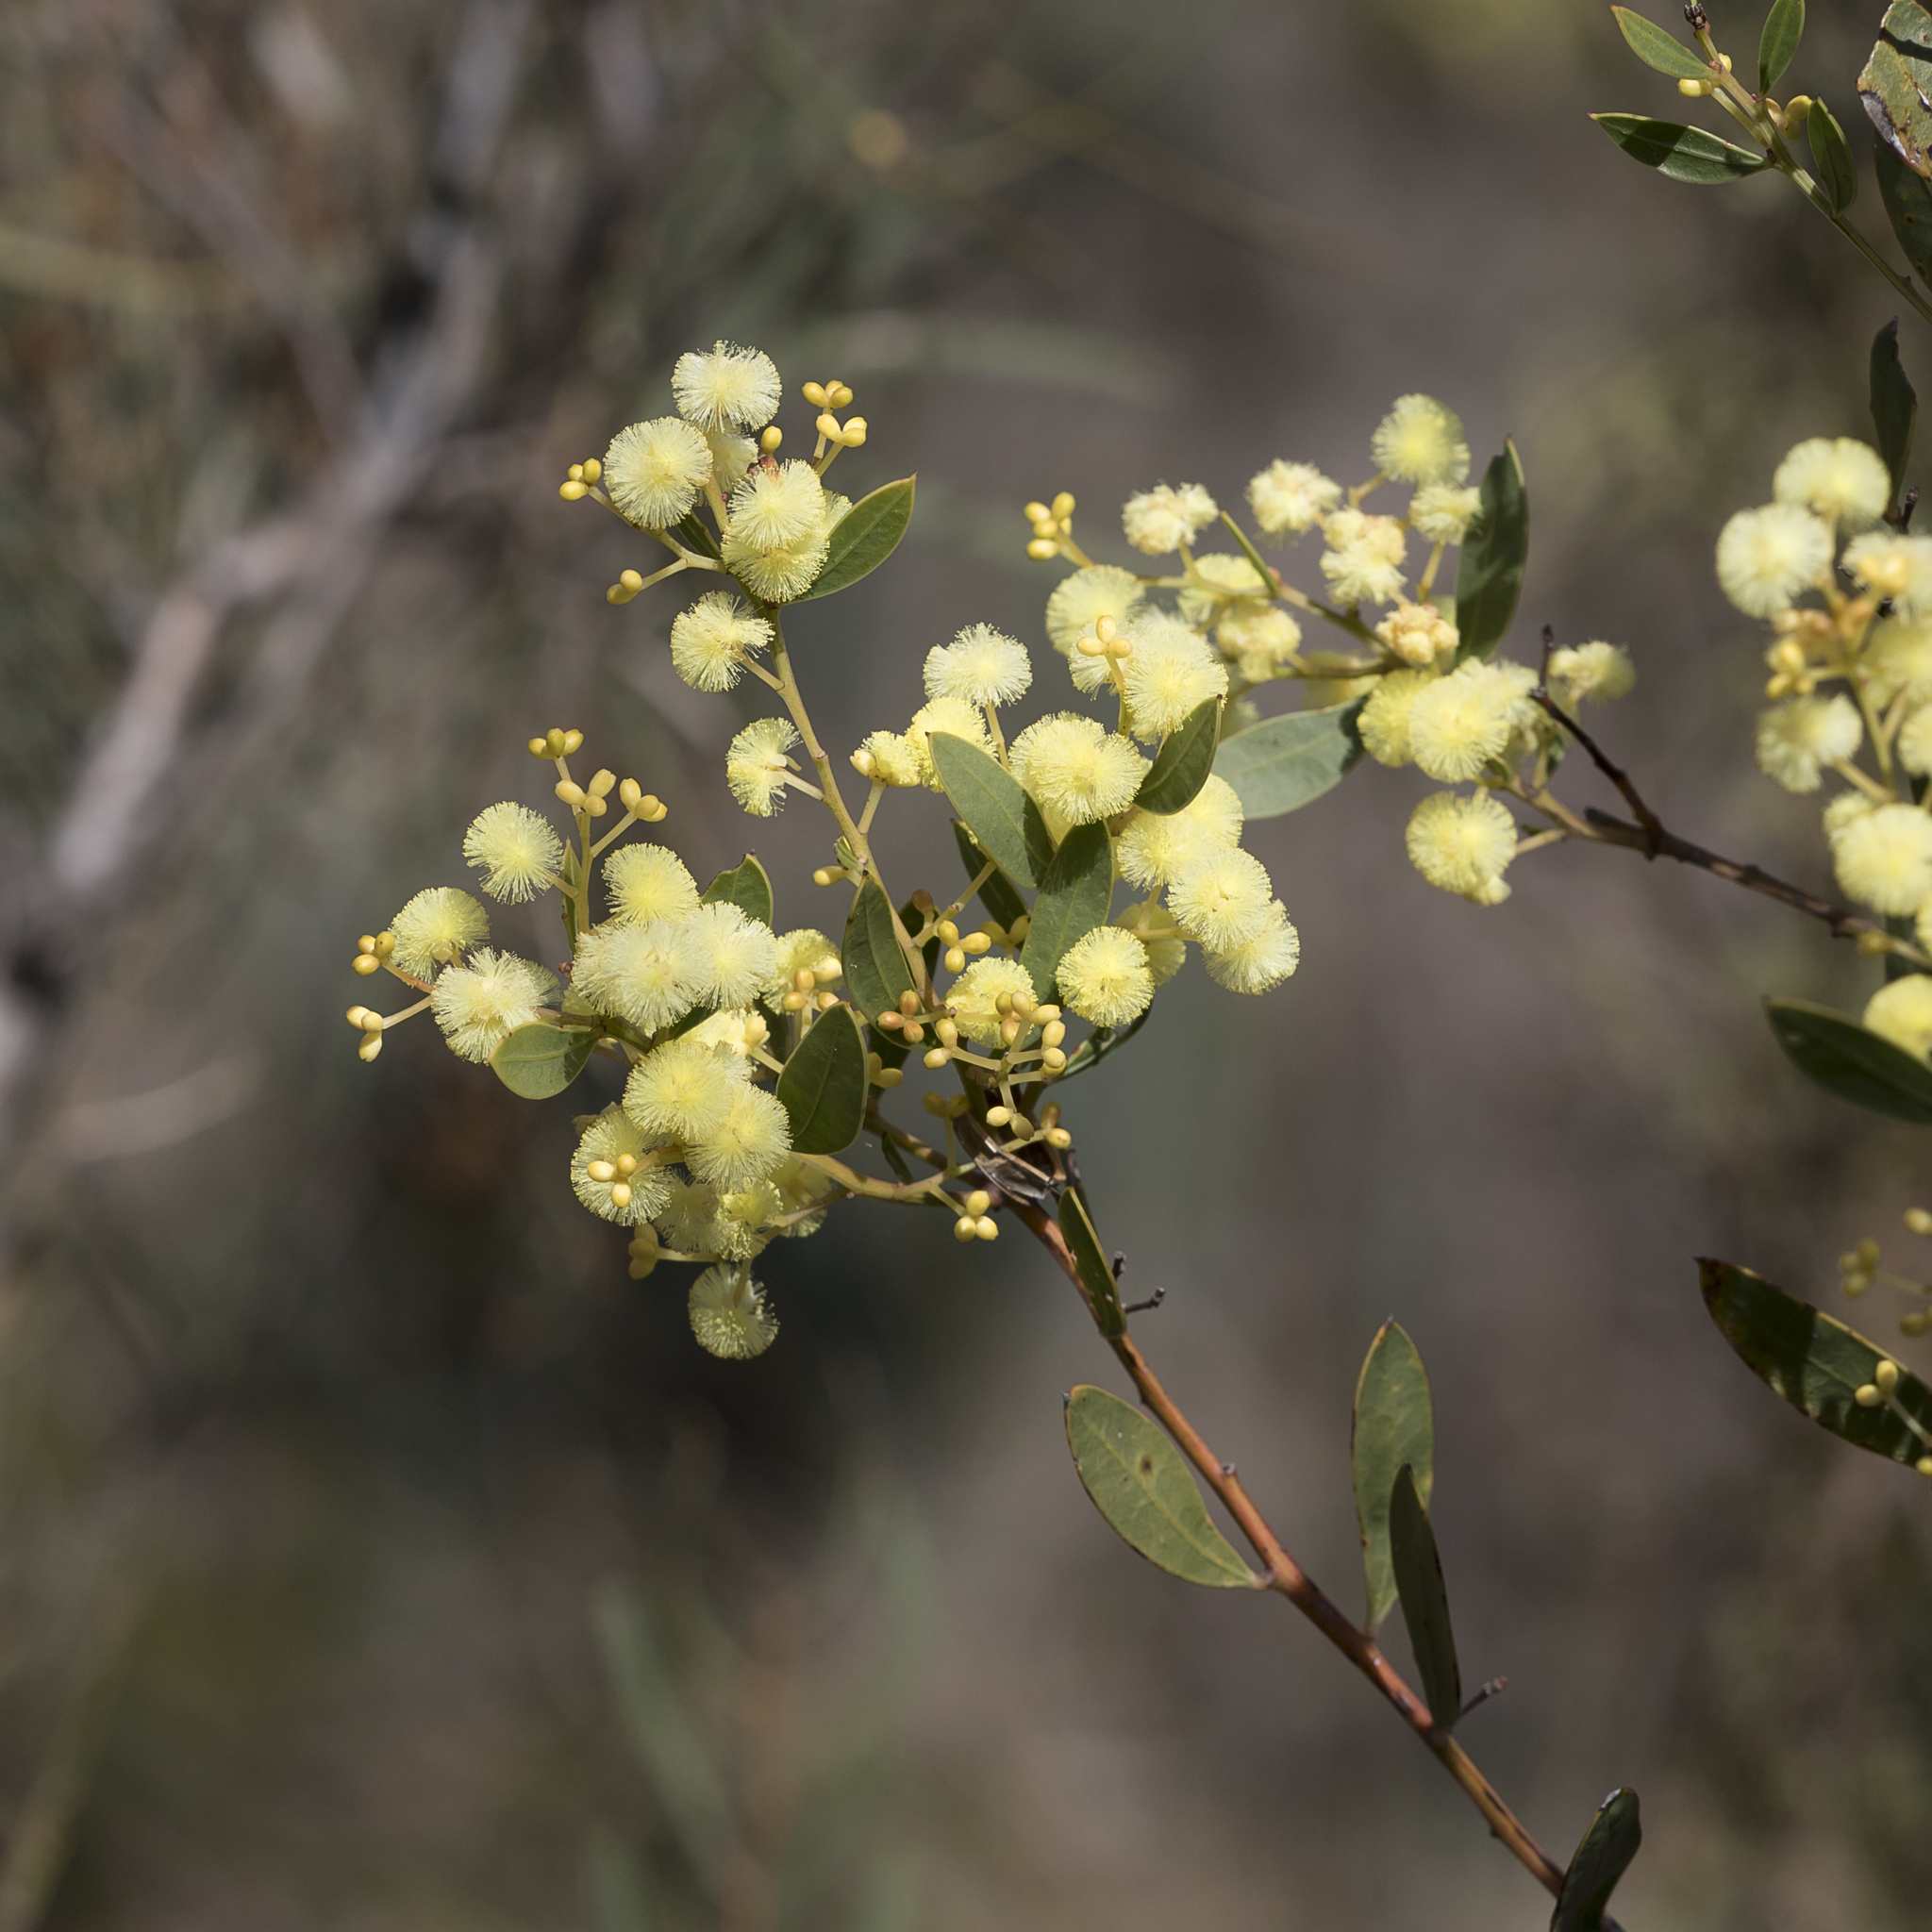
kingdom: Plantae
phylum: Tracheophyta
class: Magnoliopsida
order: Fabales
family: Fabaceae
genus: Acacia
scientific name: Acacia myrtifolia
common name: Myrtle wattle
